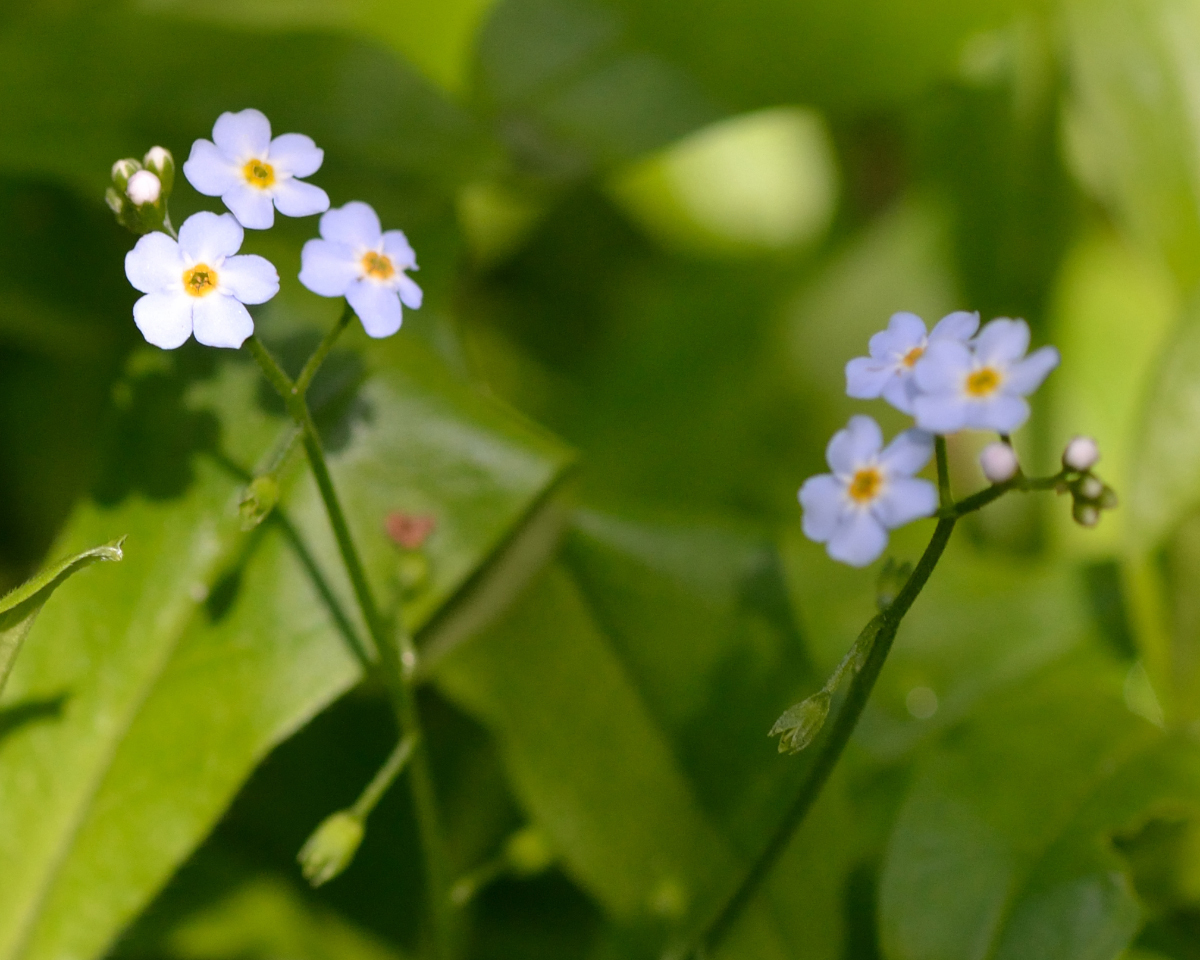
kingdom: Plantae
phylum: Tracheophyta
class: Magnoliopsida
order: Boraginales
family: Boraginaceae
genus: Myosotis
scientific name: Myosotis scorpioides
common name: Water forget-me-not
